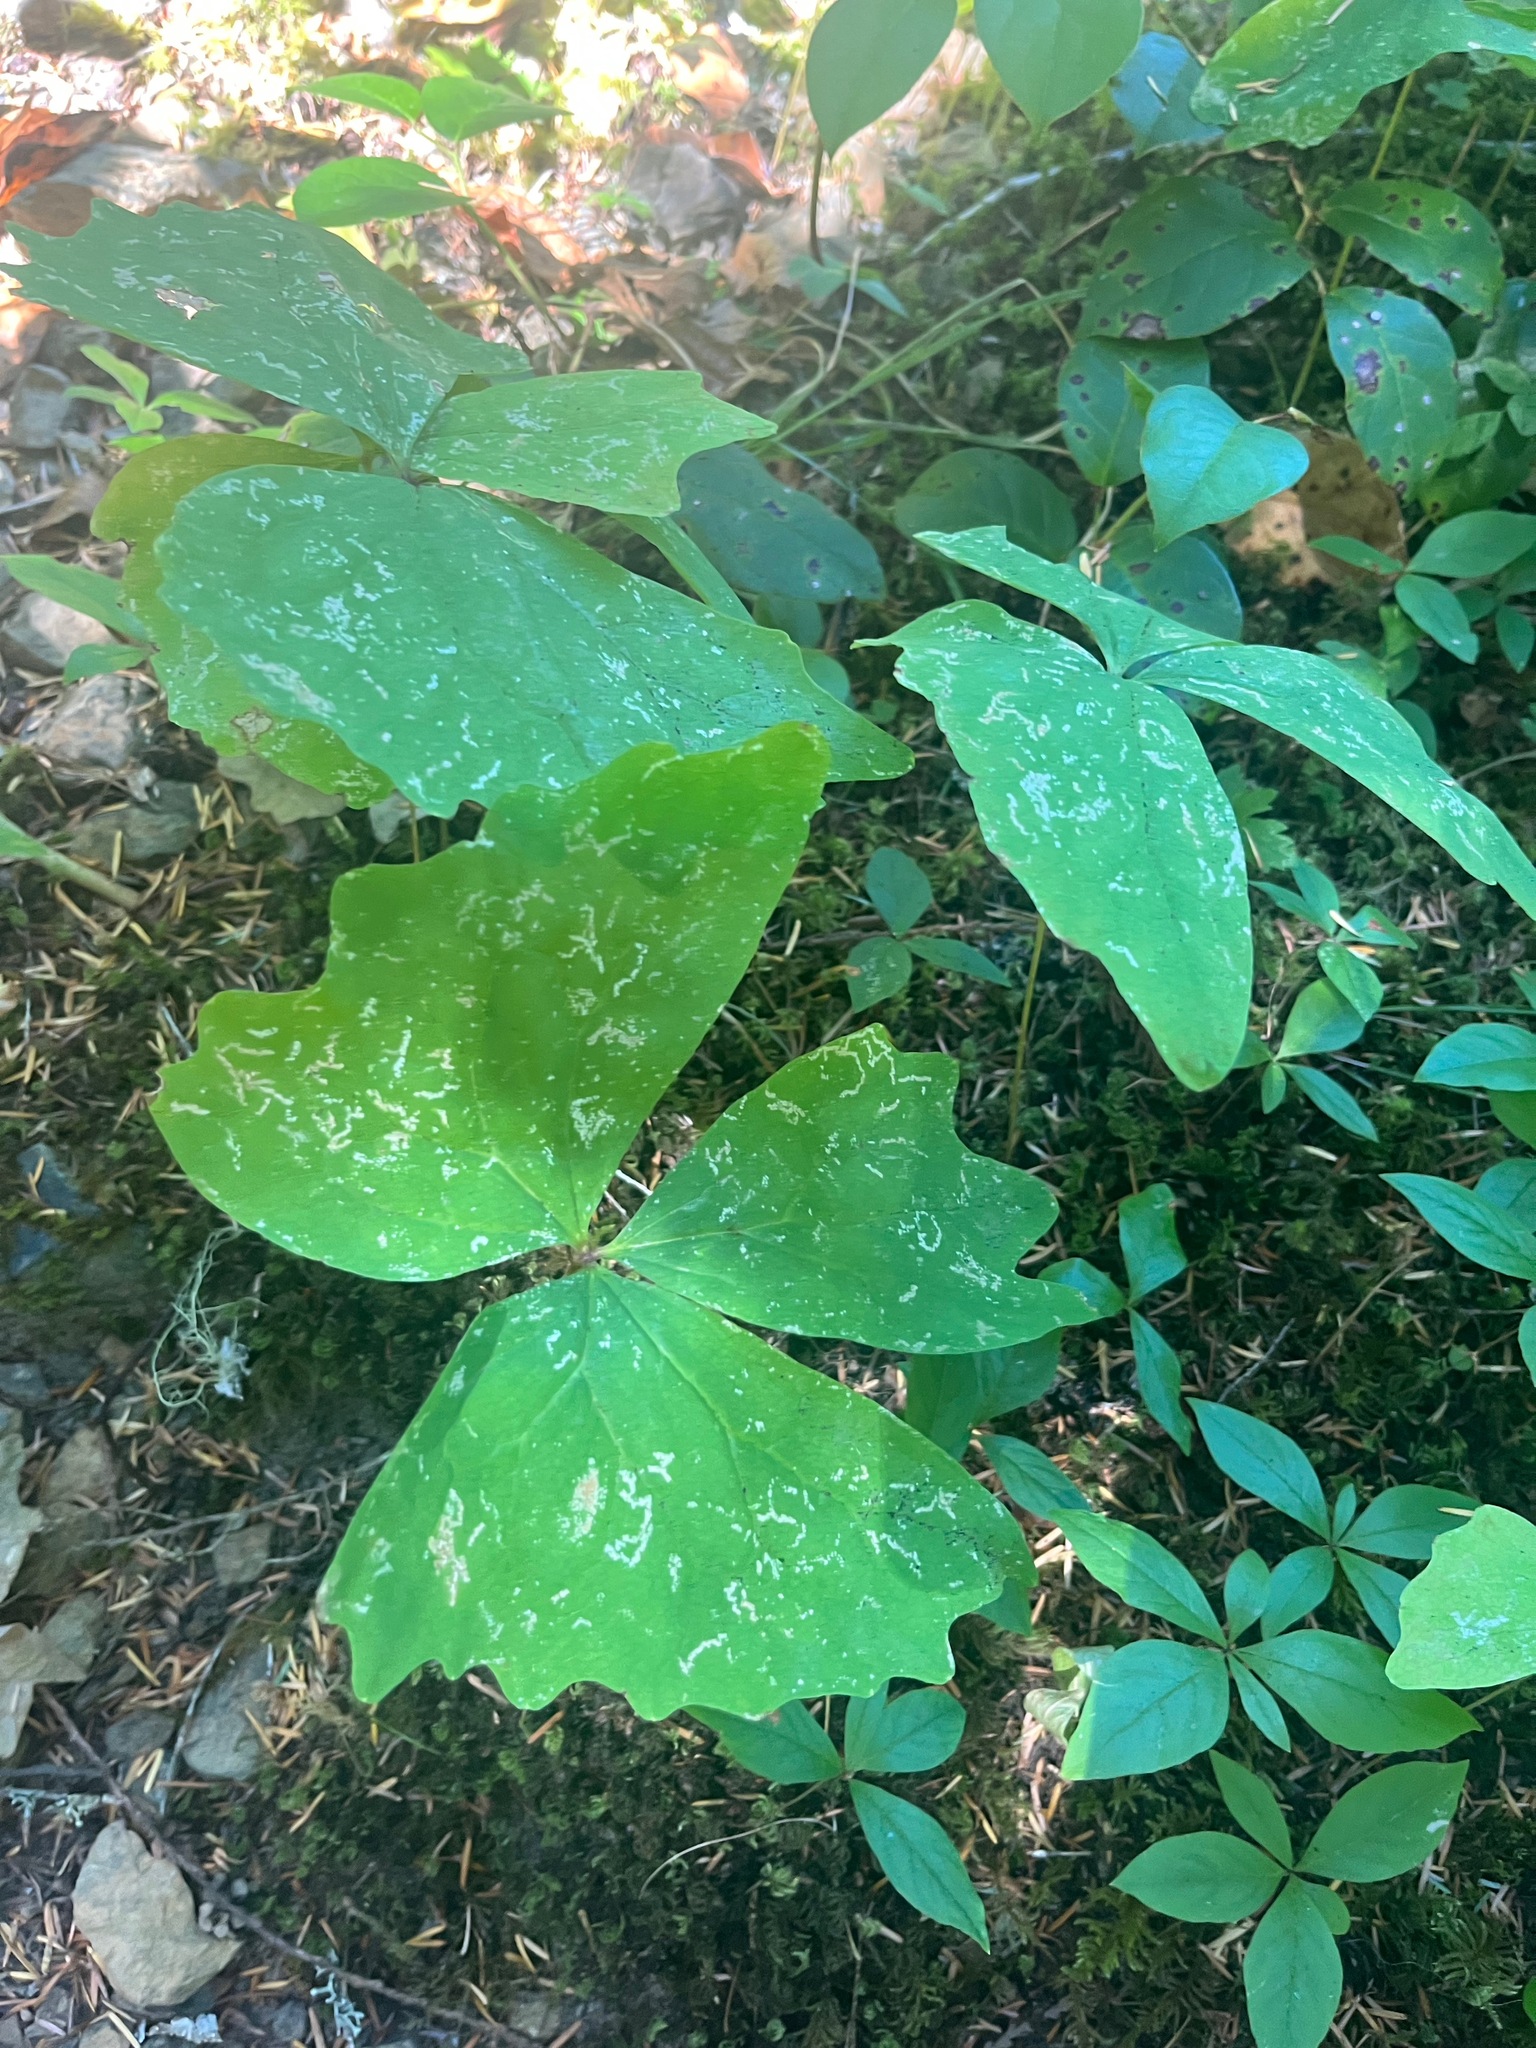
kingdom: Plantae
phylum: Tracheophyta
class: Magnoliopsida
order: Ranunculales
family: Berberidaceae
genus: Achlys
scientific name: Achlys triphylla
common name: Vanilla-leaf
